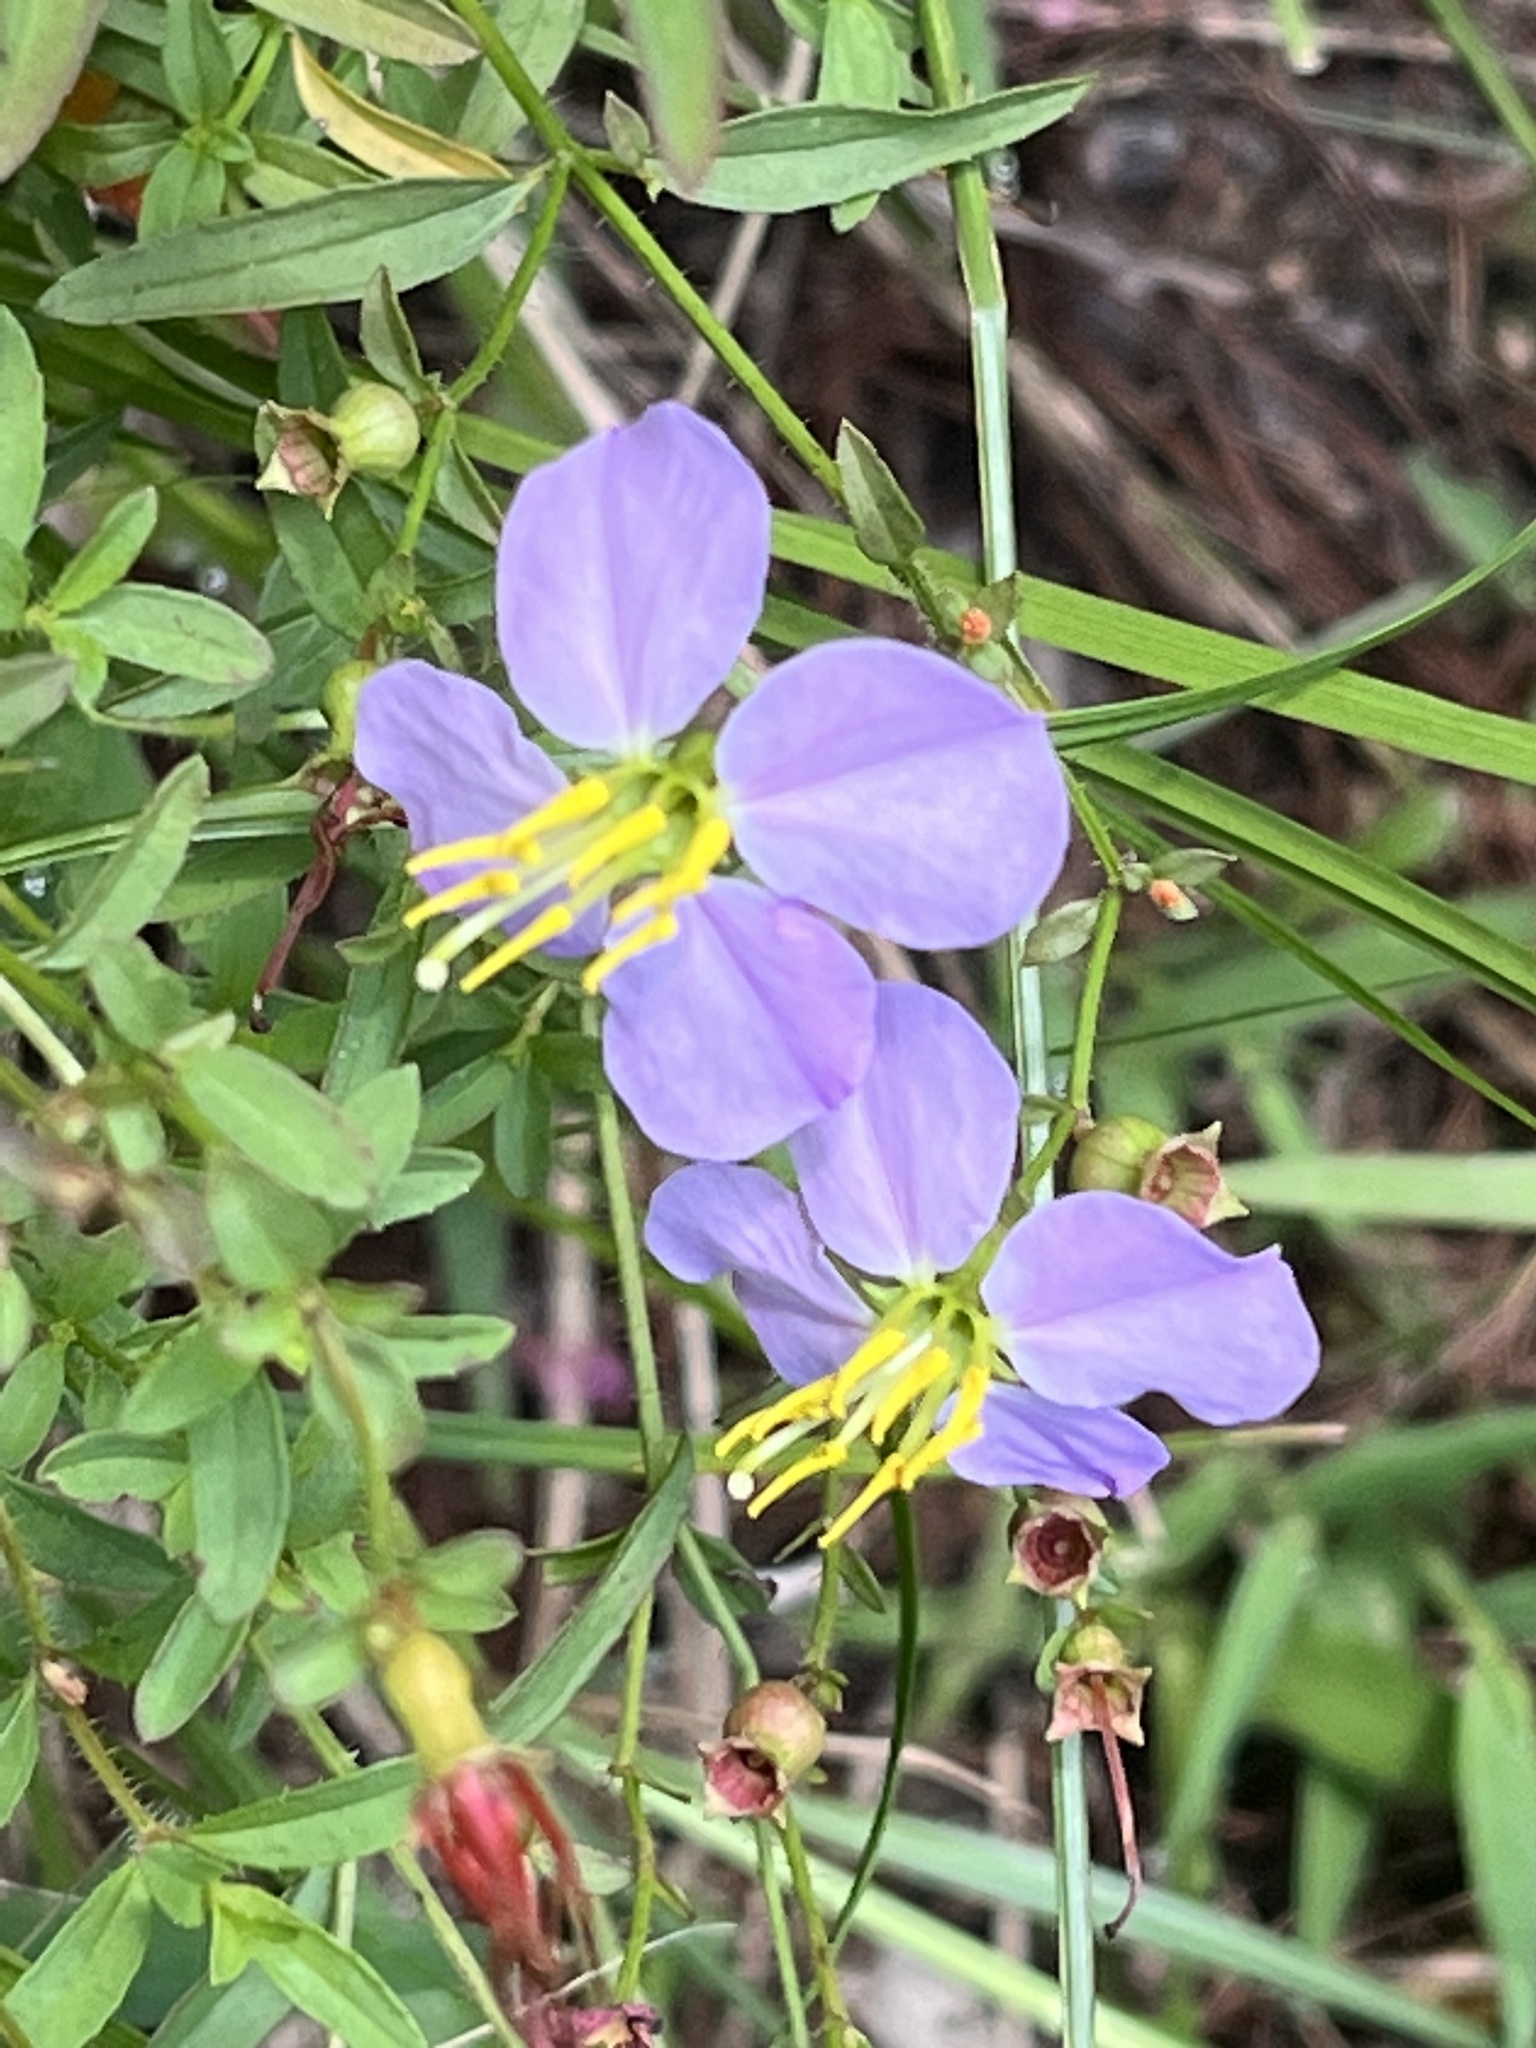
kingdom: Plantae
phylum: Tracheophyta
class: Magnoliopsida
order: Myrtales
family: Melastomataceae
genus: Rhexia
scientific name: Rhexia mariana
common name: Dull meadow-pitcher
